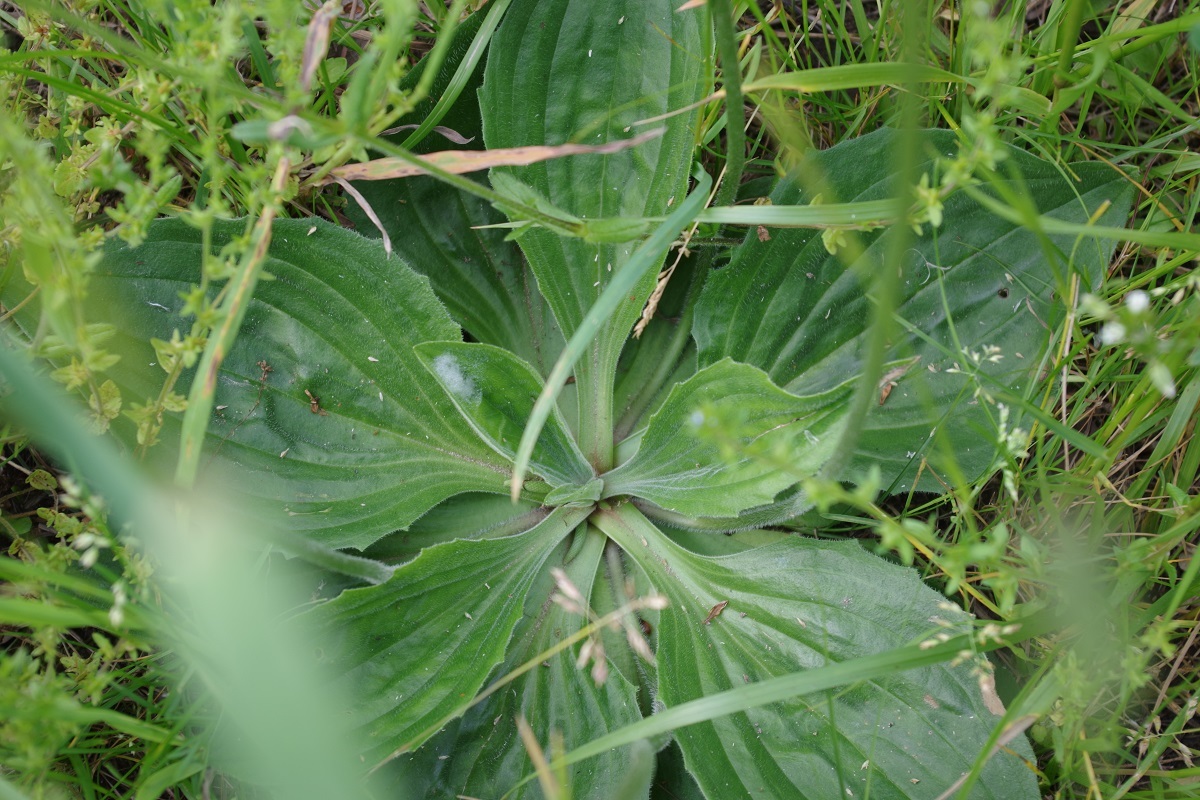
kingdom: Plantae
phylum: Tracheophyta
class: Magnoliopsida
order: Lamiales
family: Plantaginaceae
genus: Plantago
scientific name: Plantago media
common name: Hoary plantain
